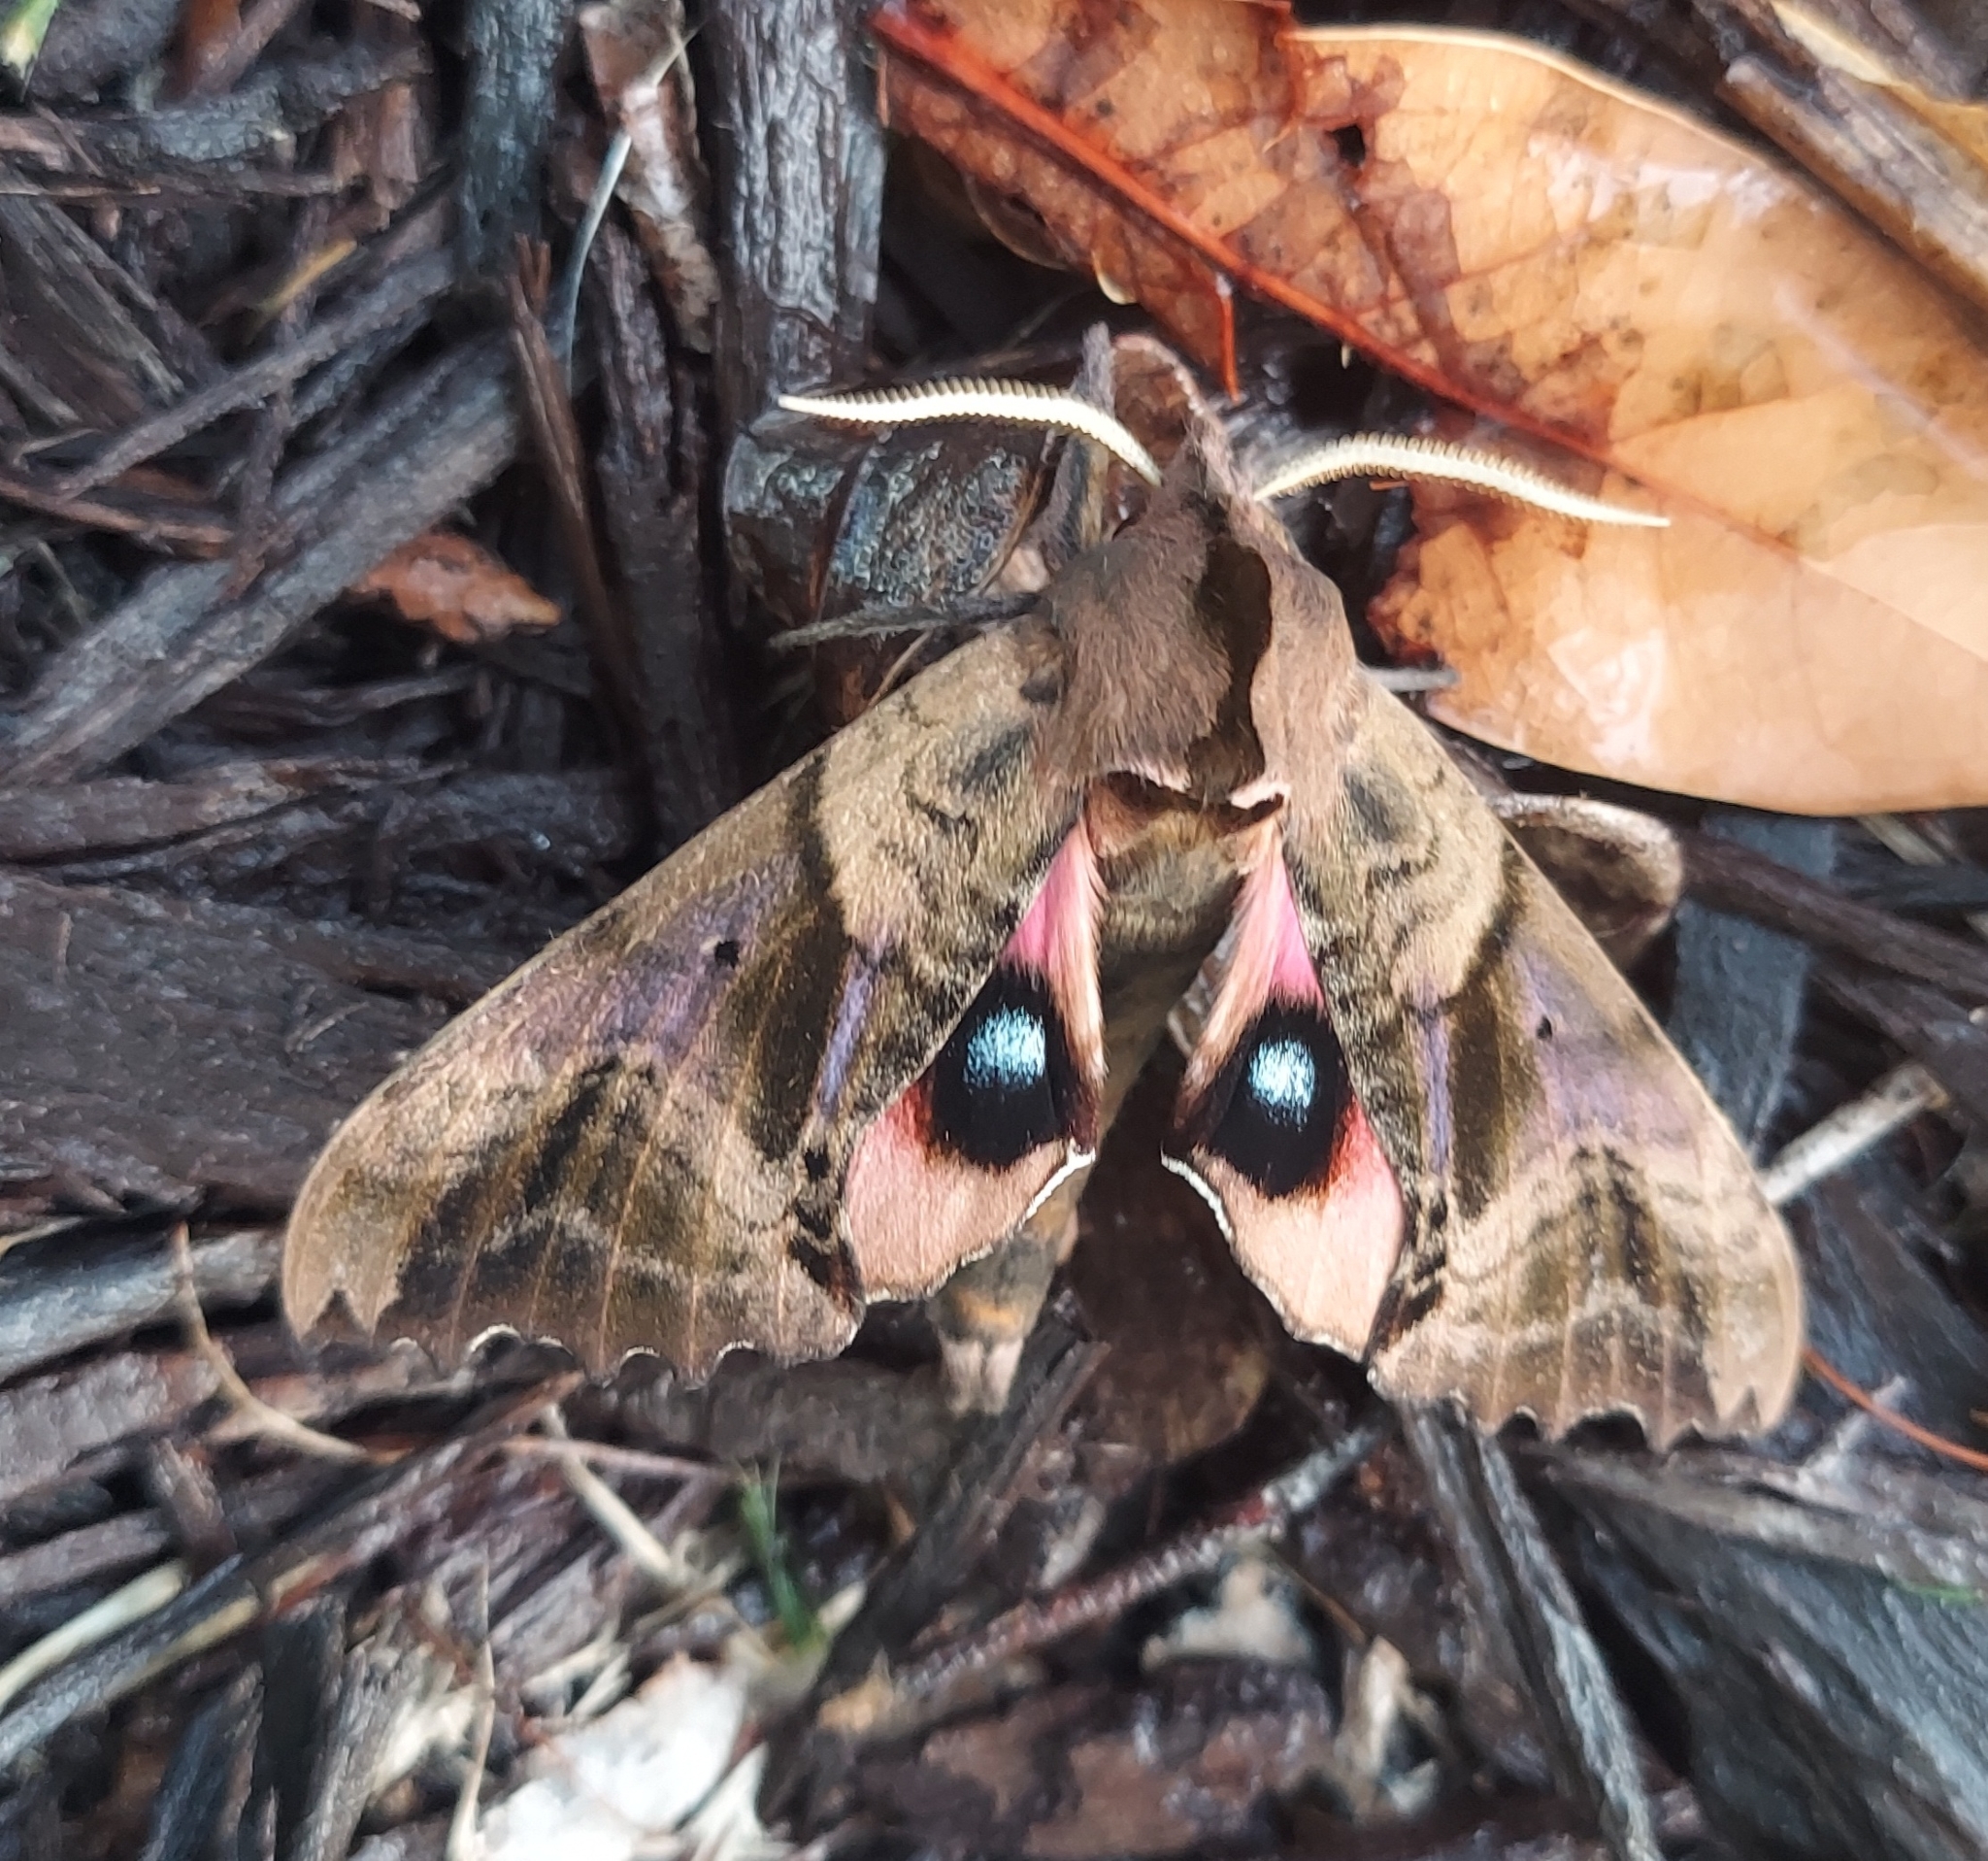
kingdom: Animalia
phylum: Arthropoda
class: Insecta
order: Lepidoptera
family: Sphingidae
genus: Paonias
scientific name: Paonias excaecata
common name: Blind-eyed sphinx
